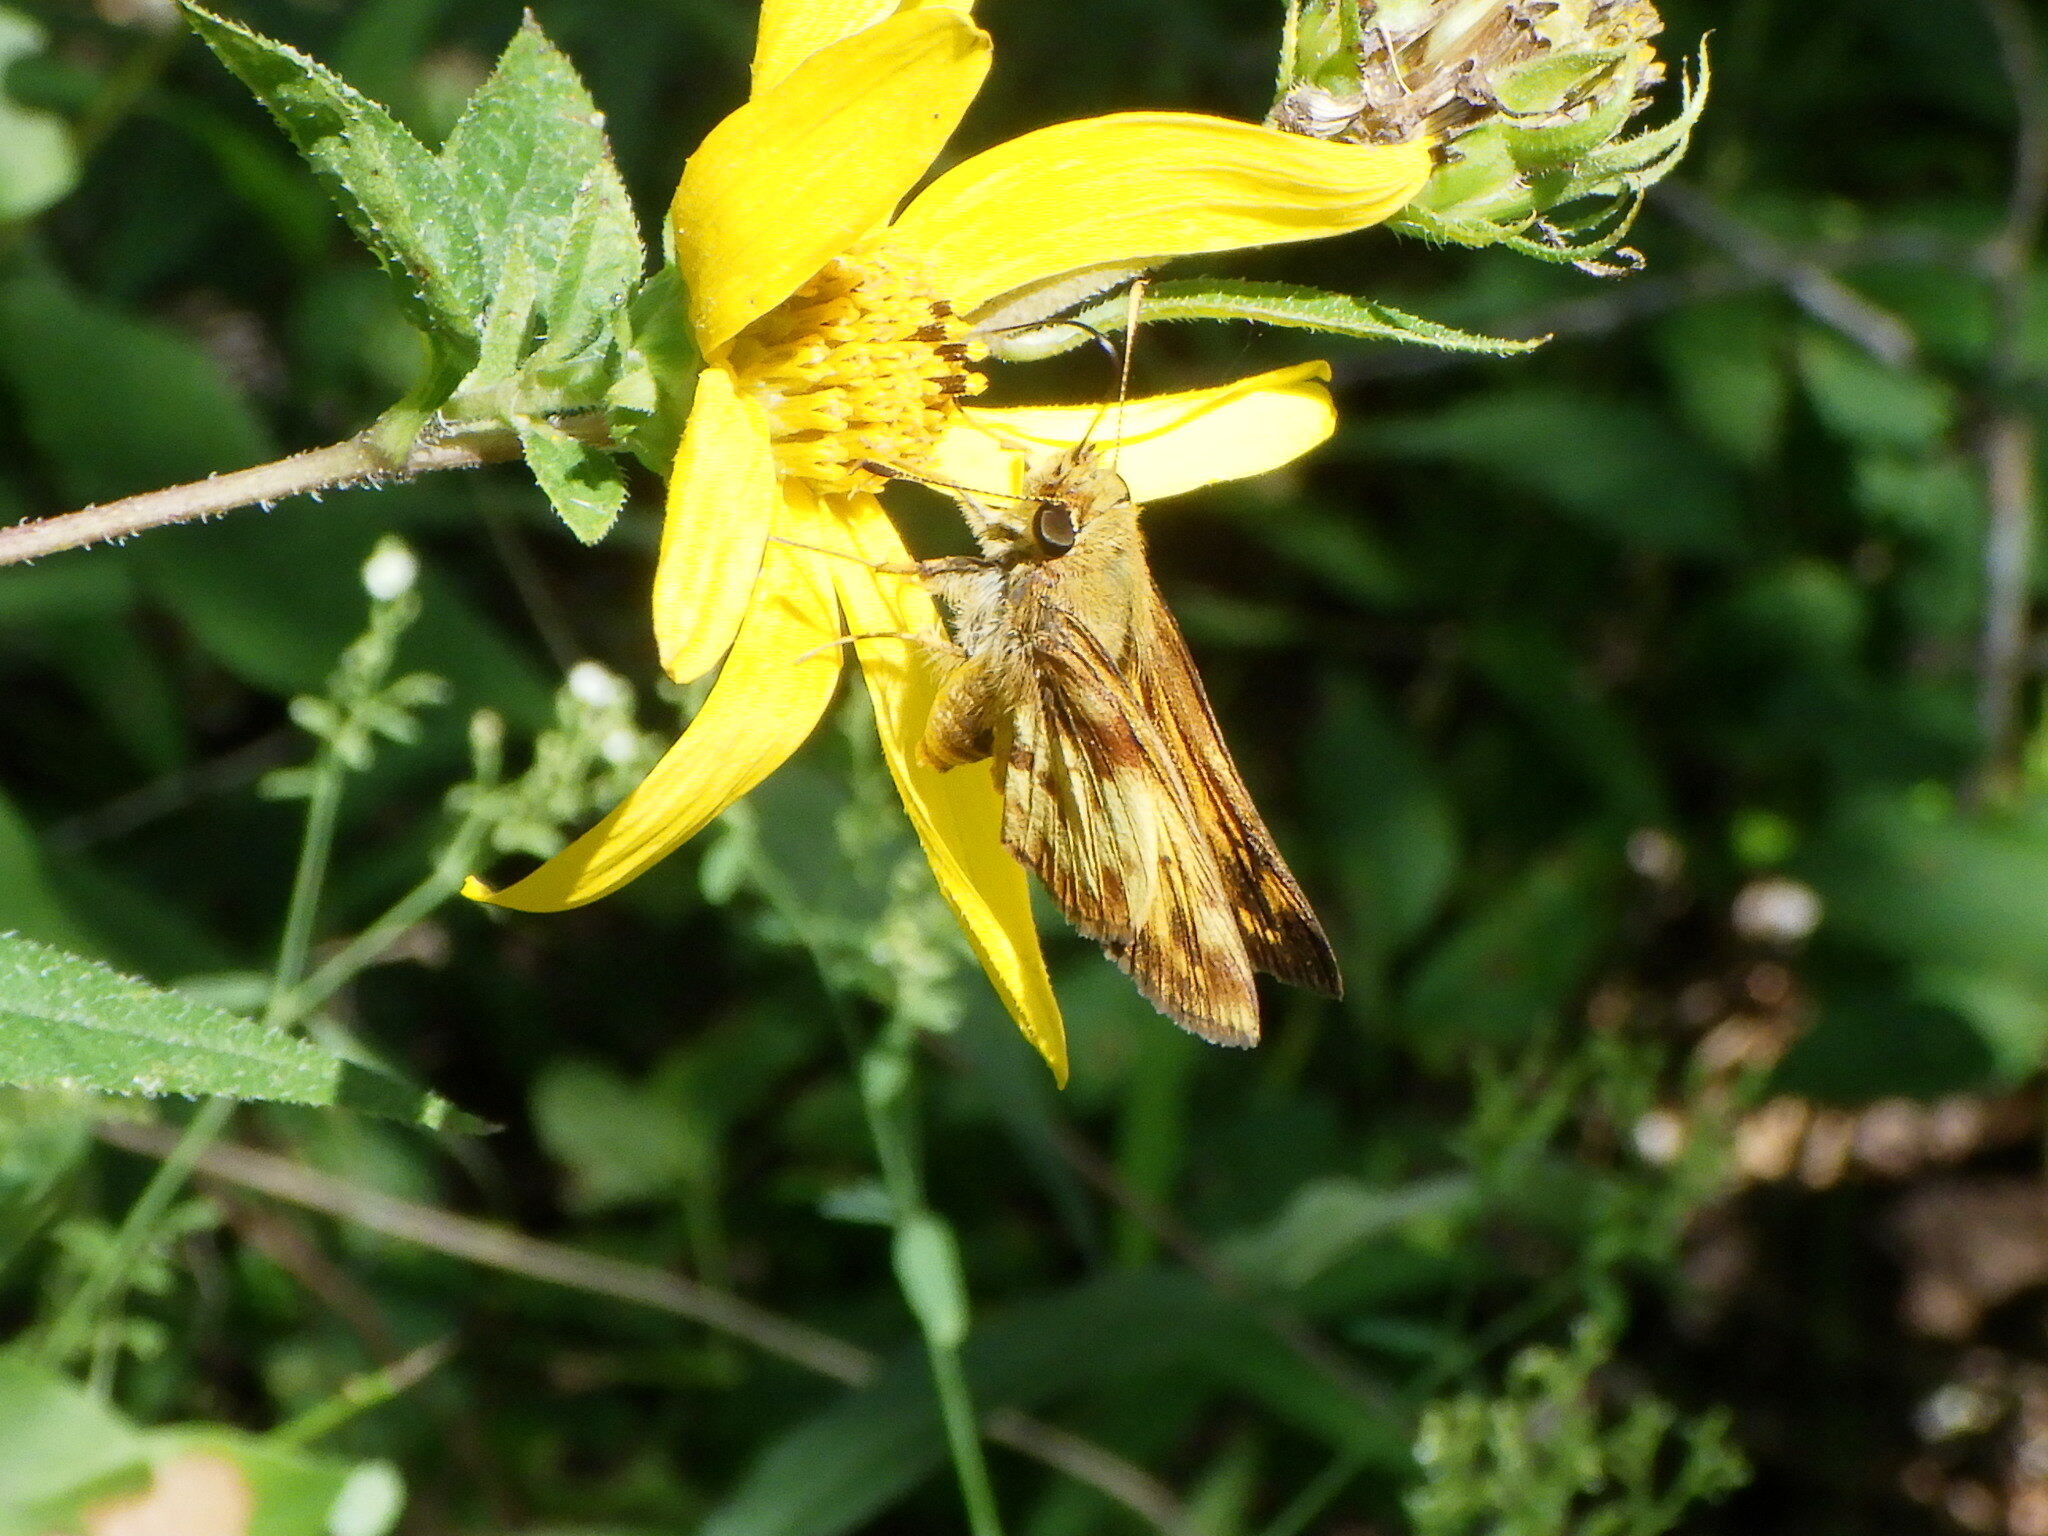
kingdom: Animalia
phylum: Arthropoda
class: Insecta
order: Lepidoptera
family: Hesperiidae
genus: Lon
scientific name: Lon zabulon
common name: Zabulon skipper
